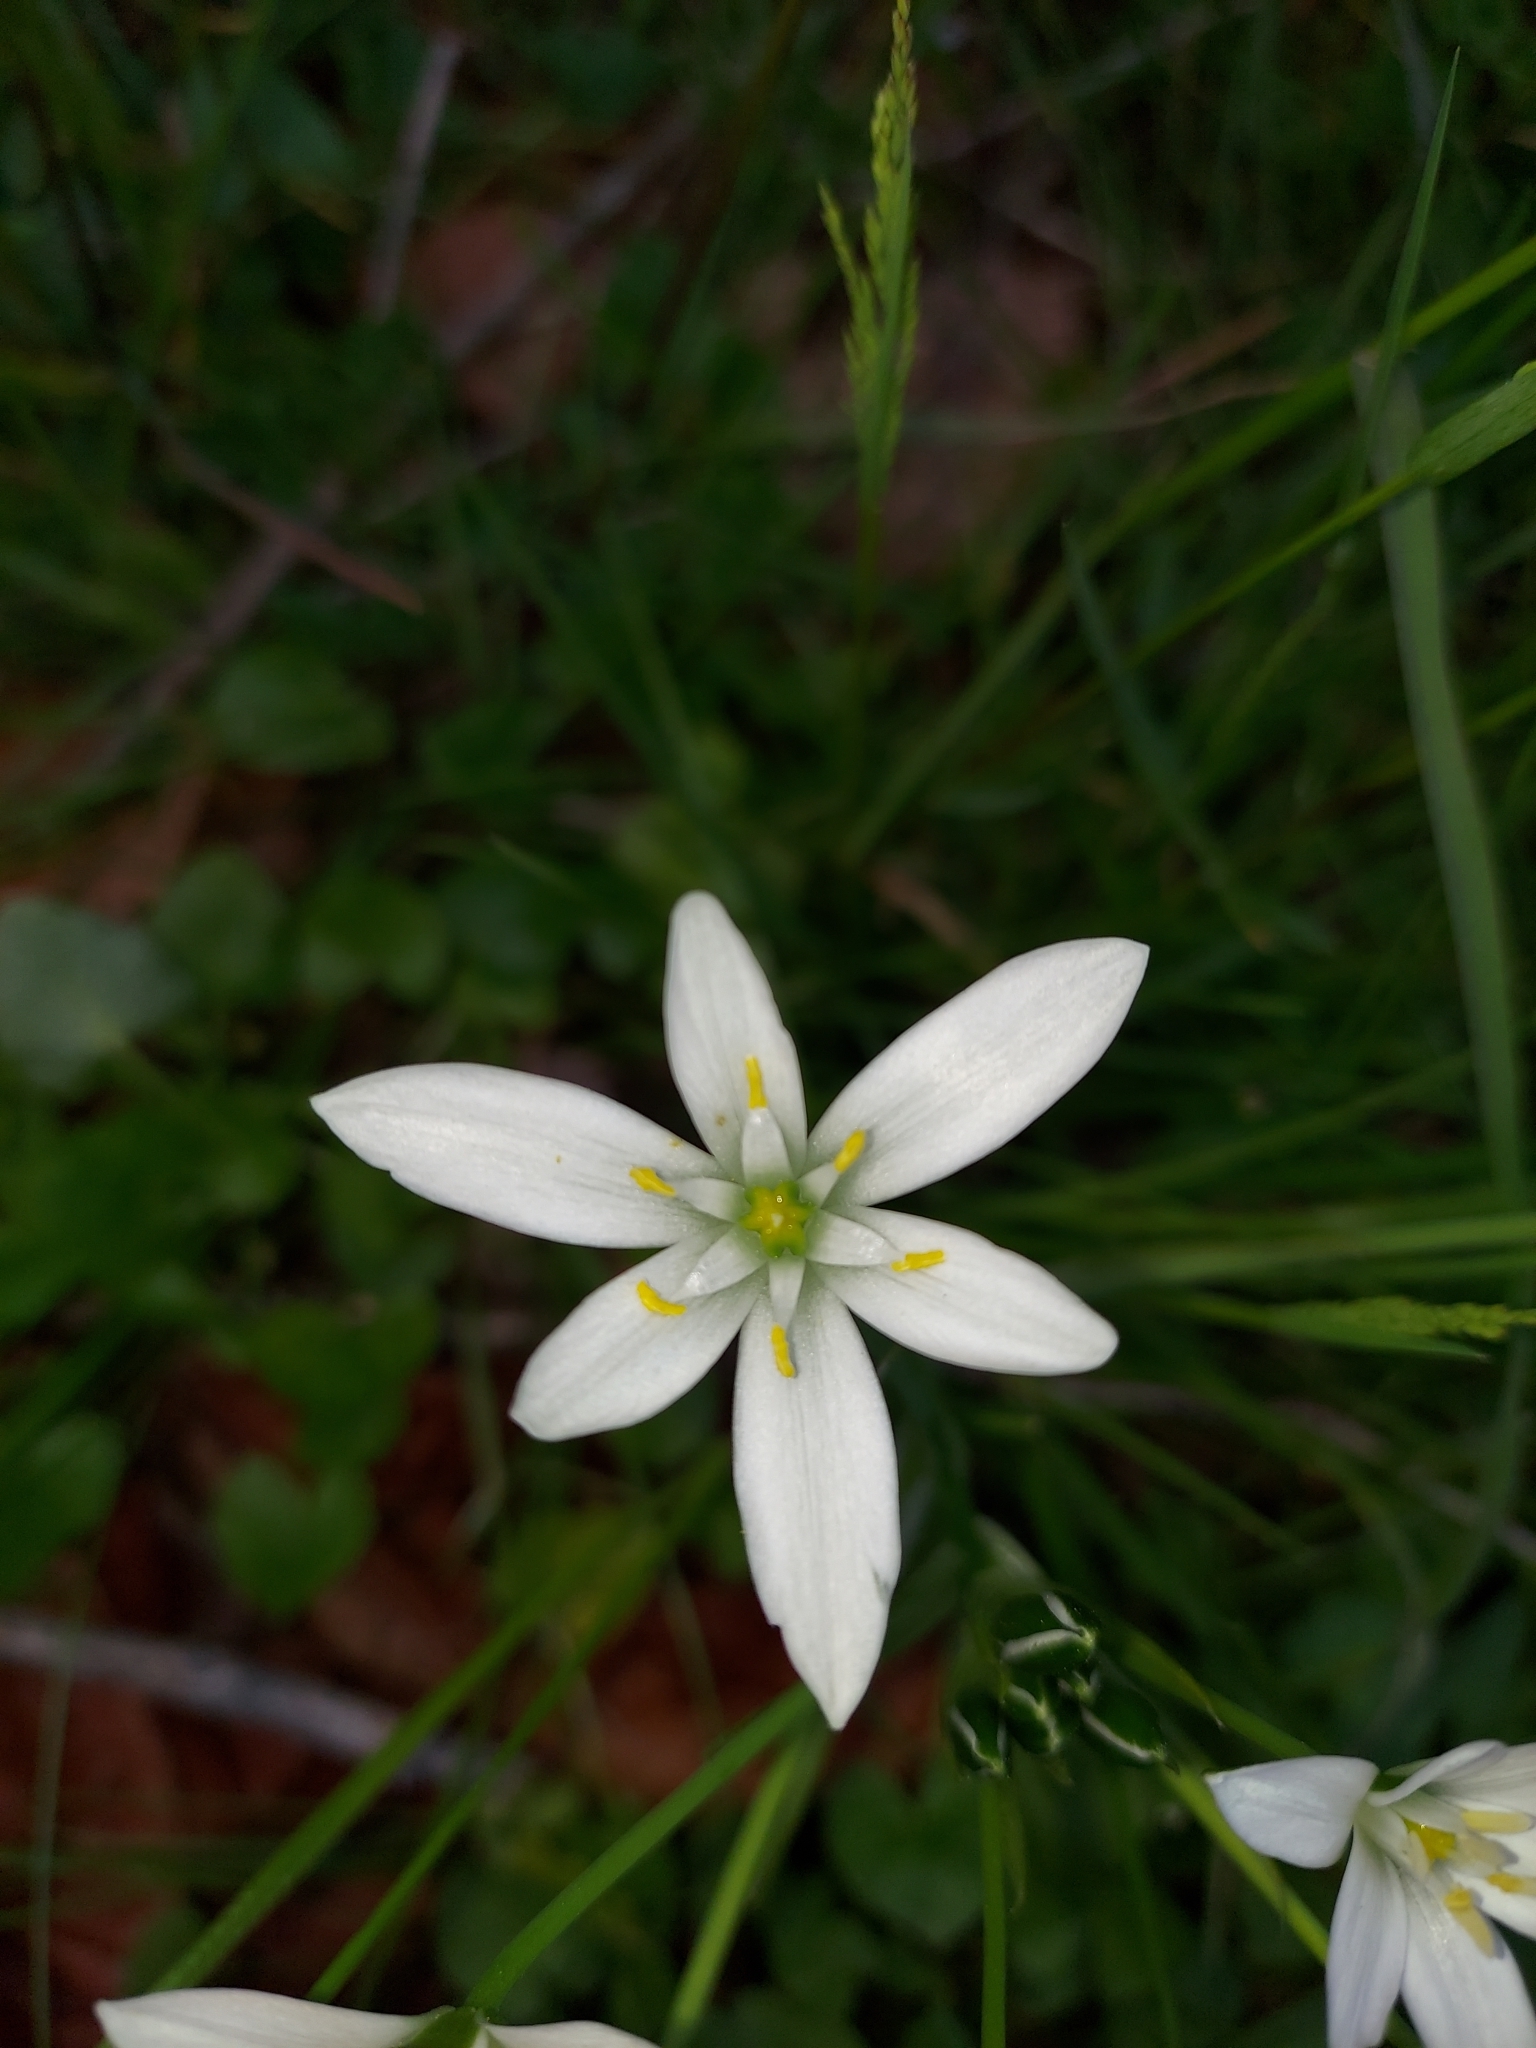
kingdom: Plantae
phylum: Tracheophyta
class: Liliopsida
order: Asparagales
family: Asparagaceae
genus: Ornithogalum
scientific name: Ornithogalum umbellatum
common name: Garden star-of-bethlehem
